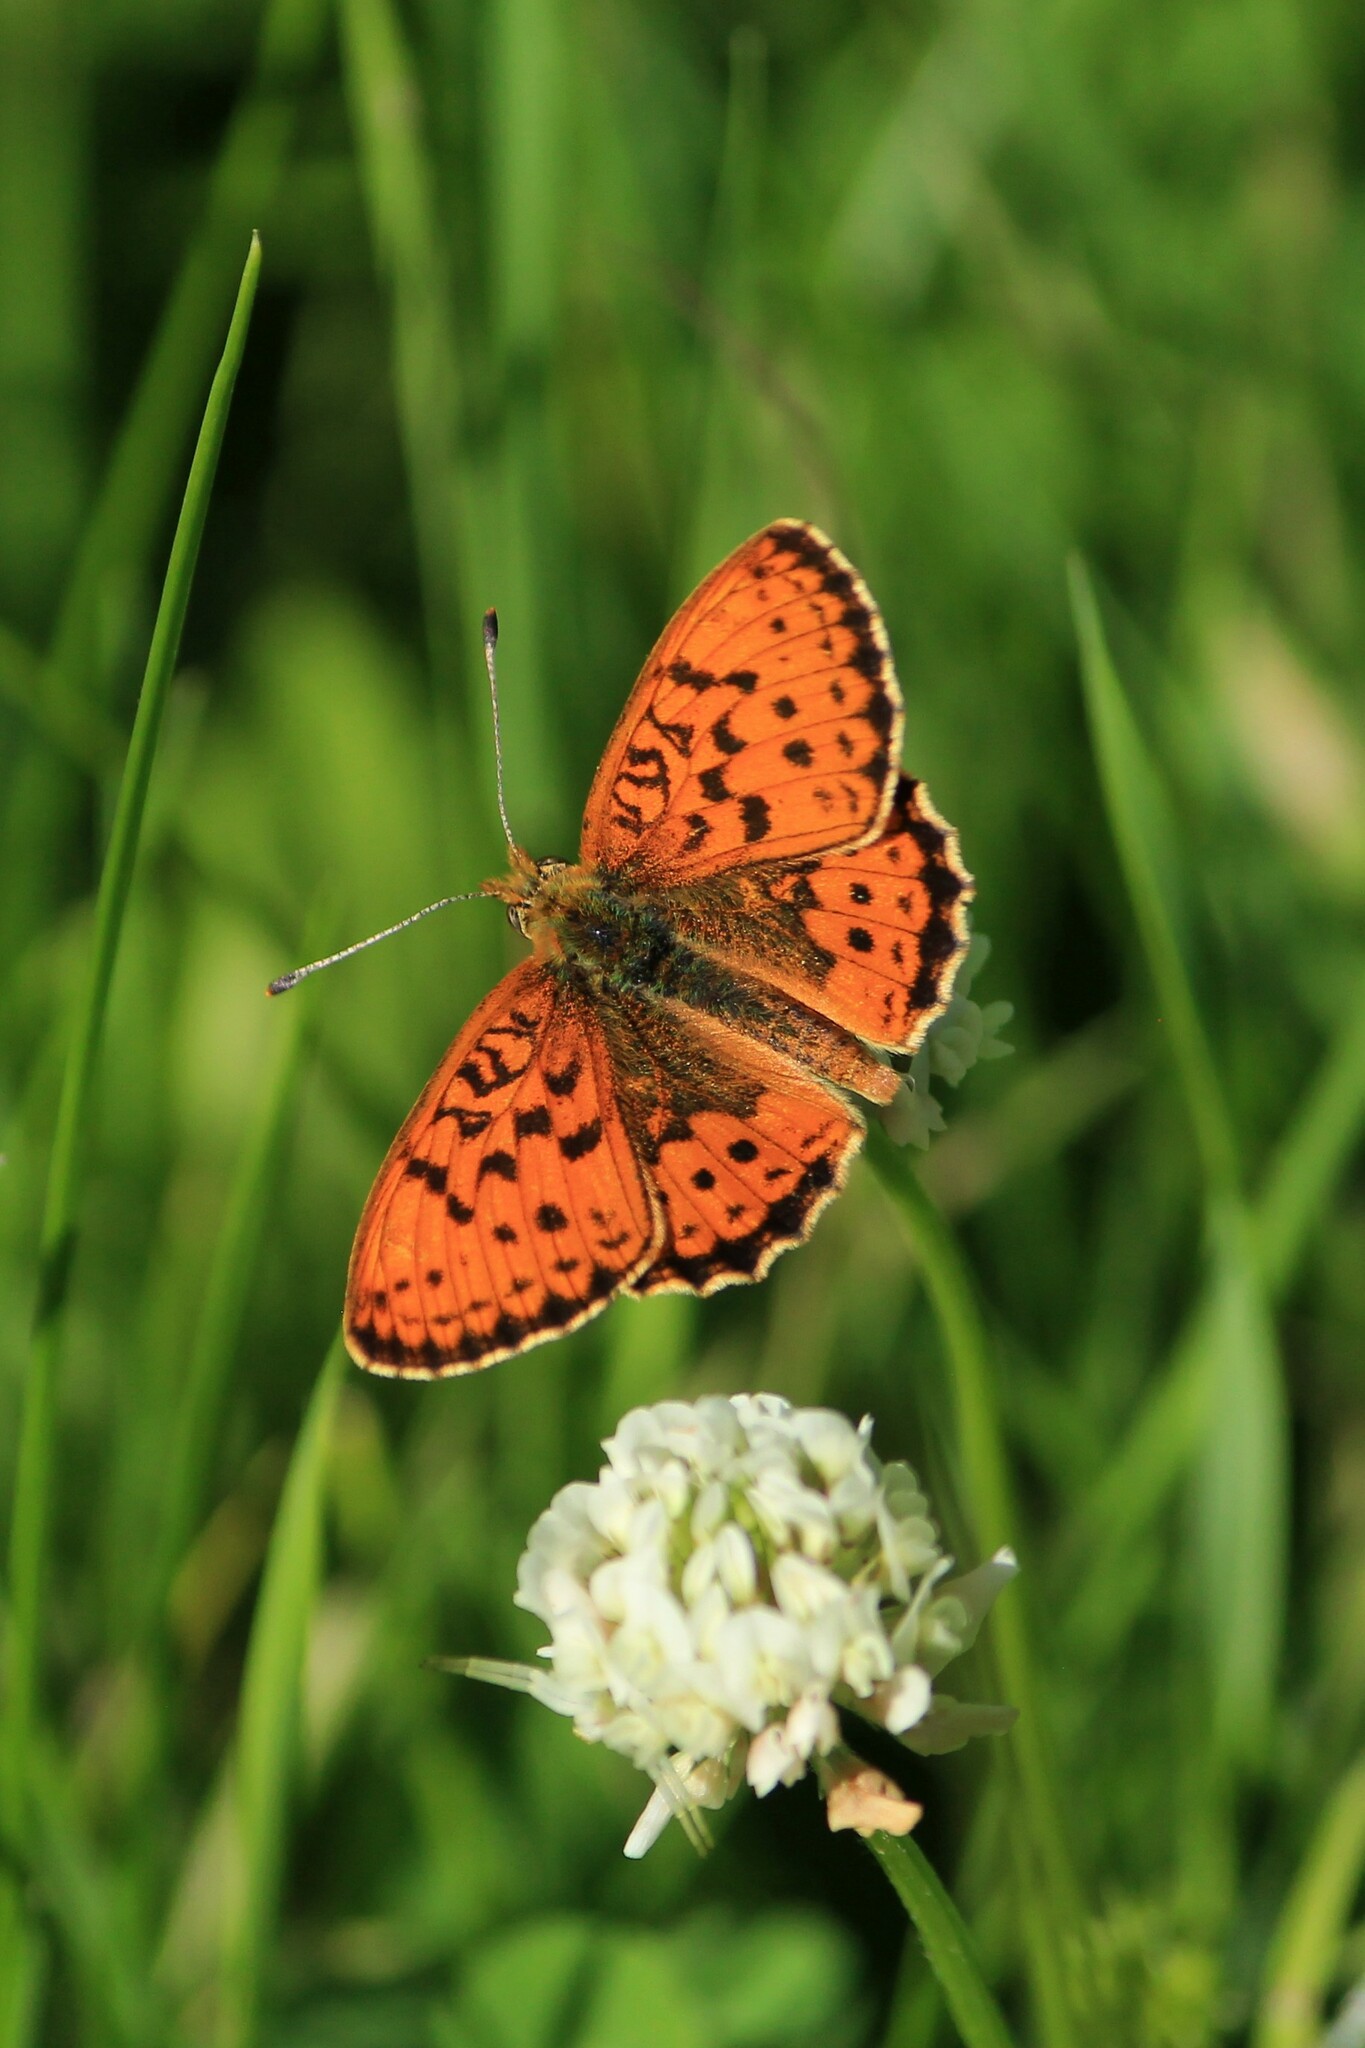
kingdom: Animalia
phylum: Arthropoda
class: Insecta
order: Lepidoptera
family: Nymphalidae
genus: Brenthis
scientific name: Brenthis ino
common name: Lesser marbled fritillary
